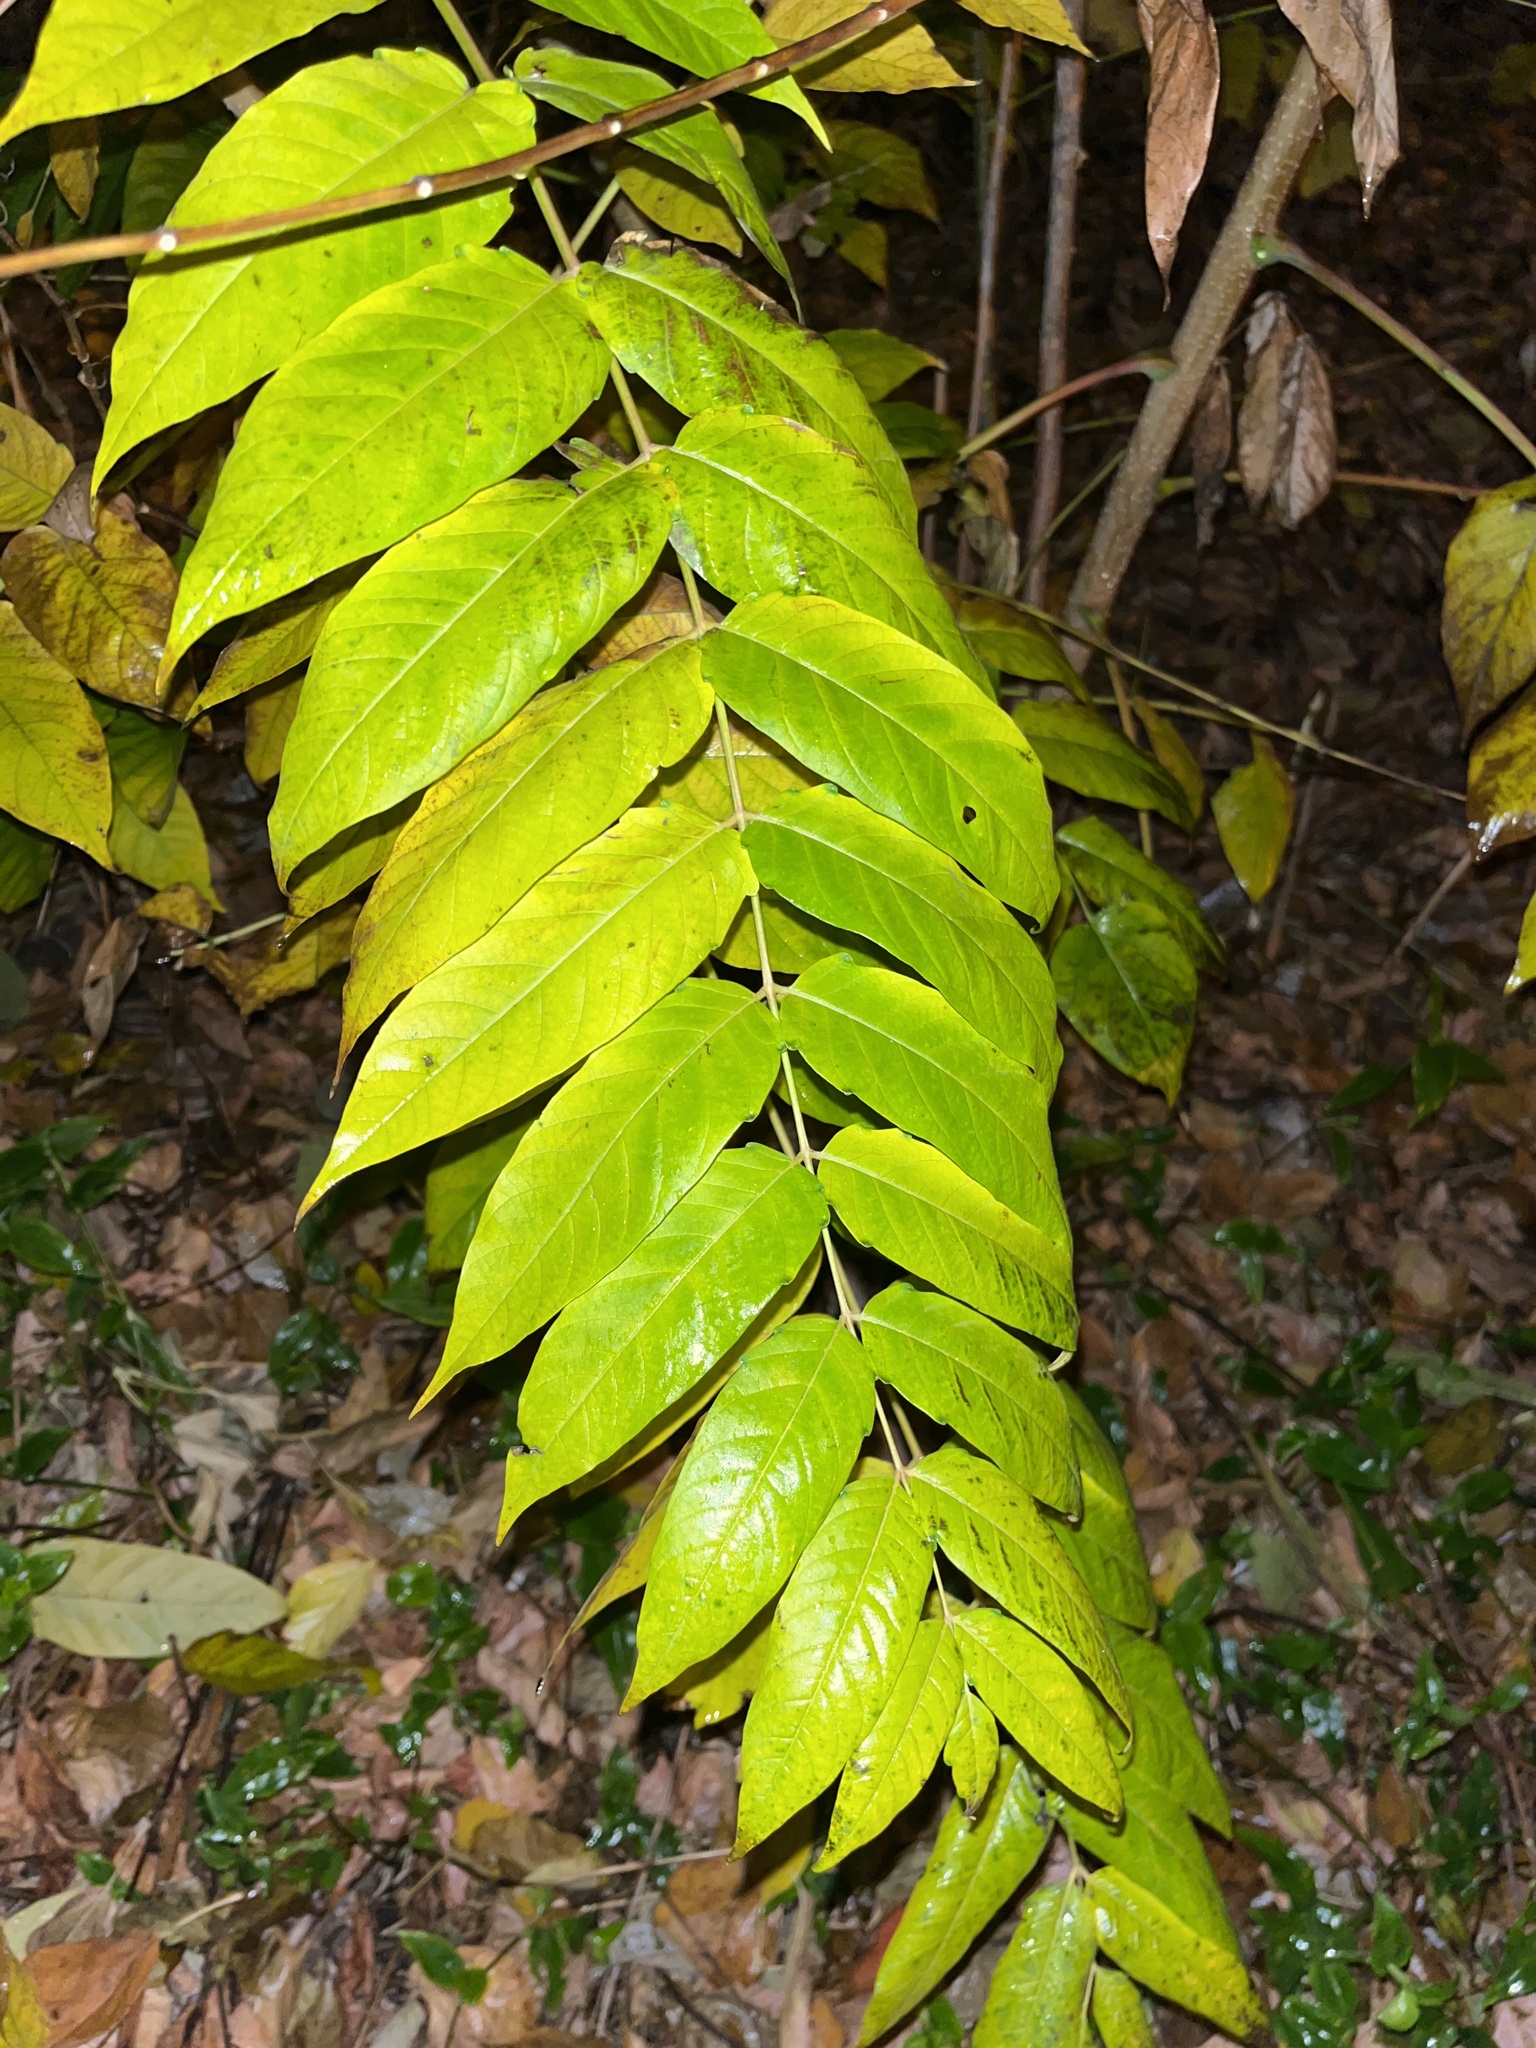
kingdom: Plantae
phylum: Tracheophyta
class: Magnoliopsida
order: Sapindales
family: Simaroubaceae
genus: Ailanthus
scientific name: Ailanthus altissima
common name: Tree-of-heaven
